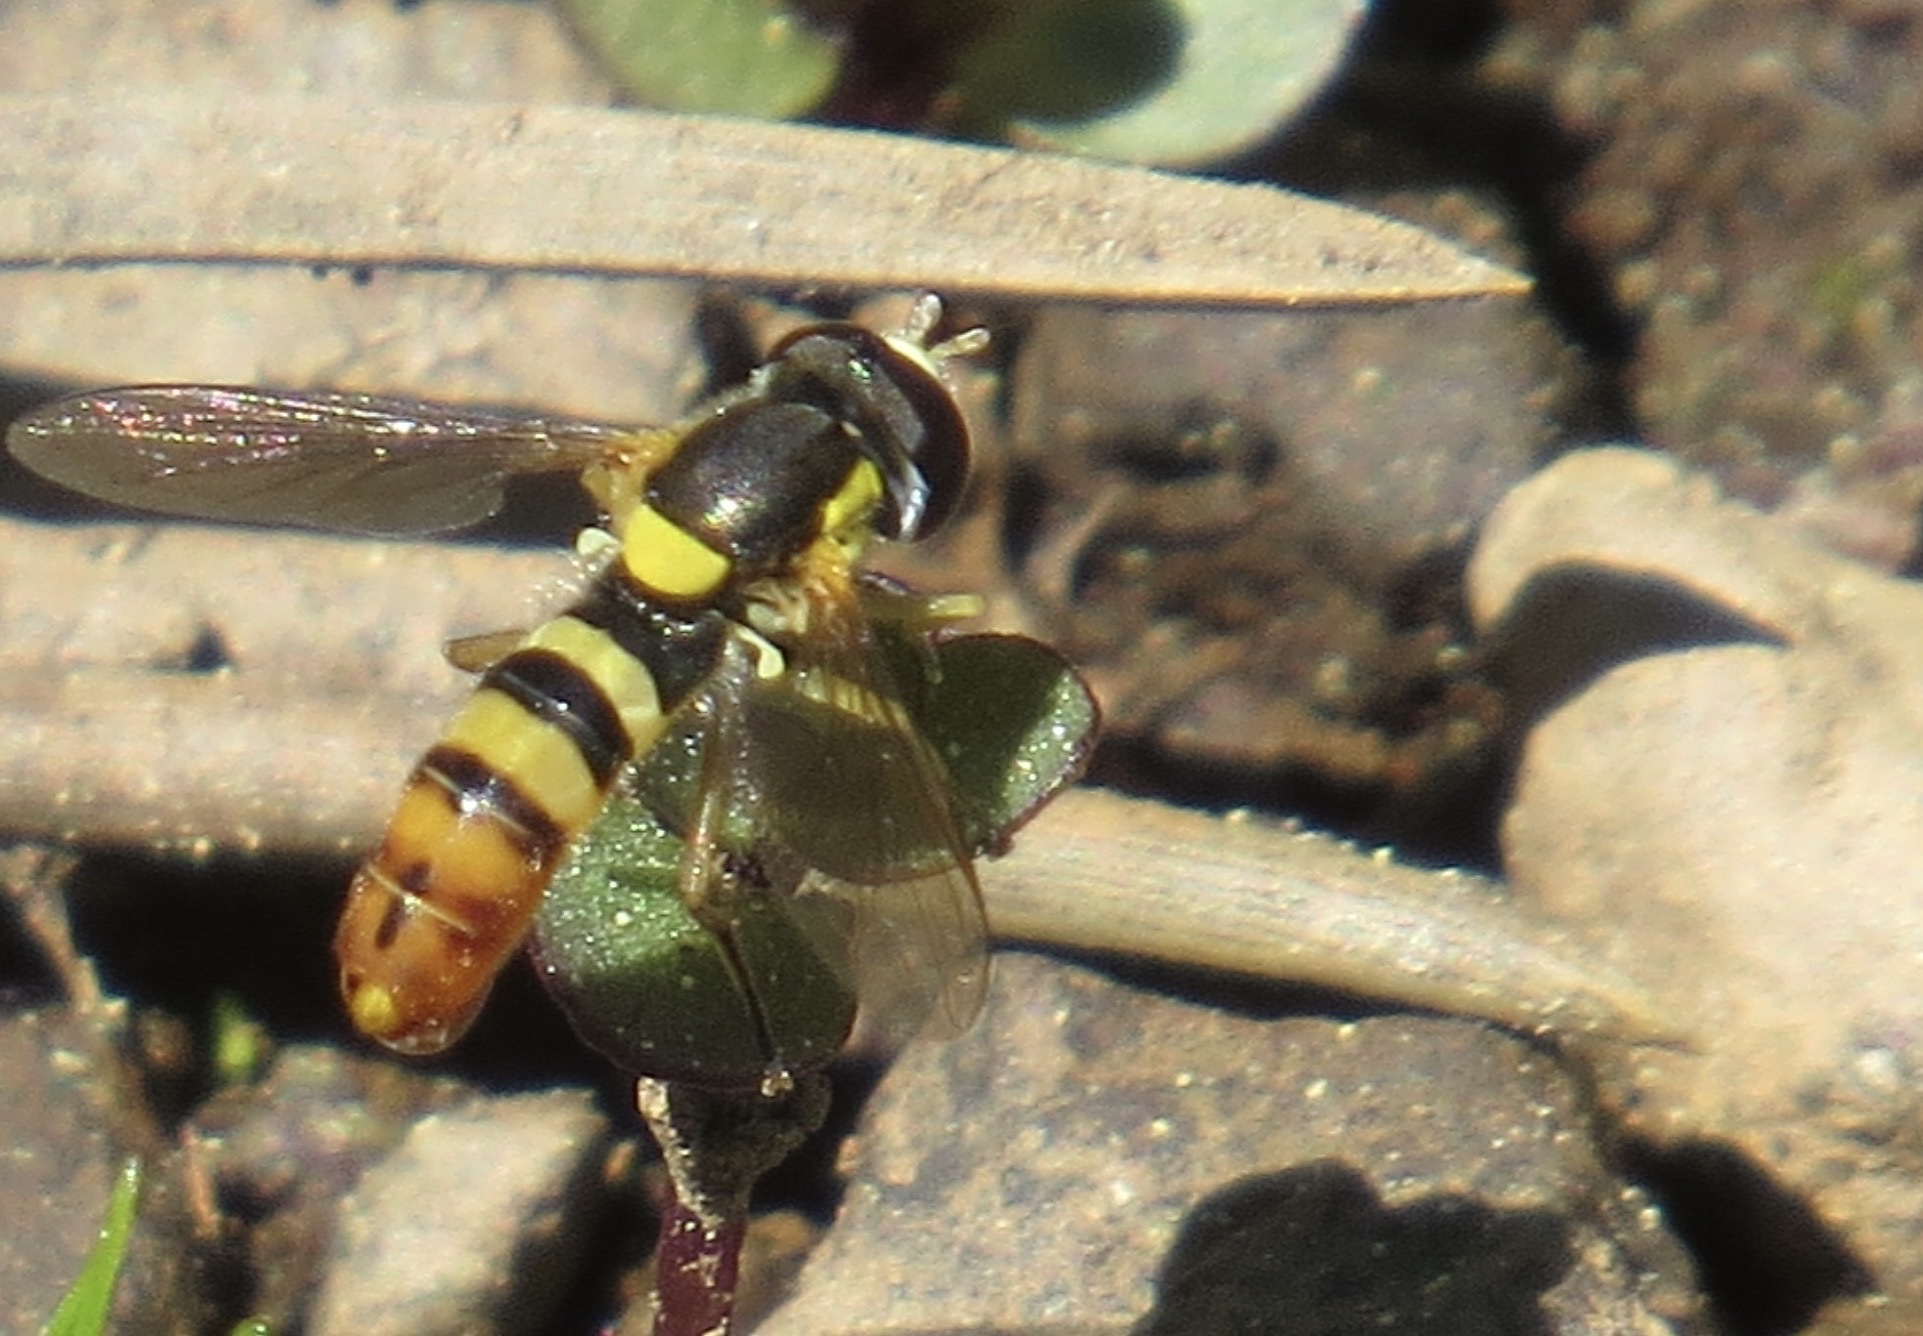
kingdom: Animalia
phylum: Arthropoda
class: Insecta
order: Diptera
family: Syrphidae
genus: Sphaerophoria
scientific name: Sphaerophoria sulphuripes
